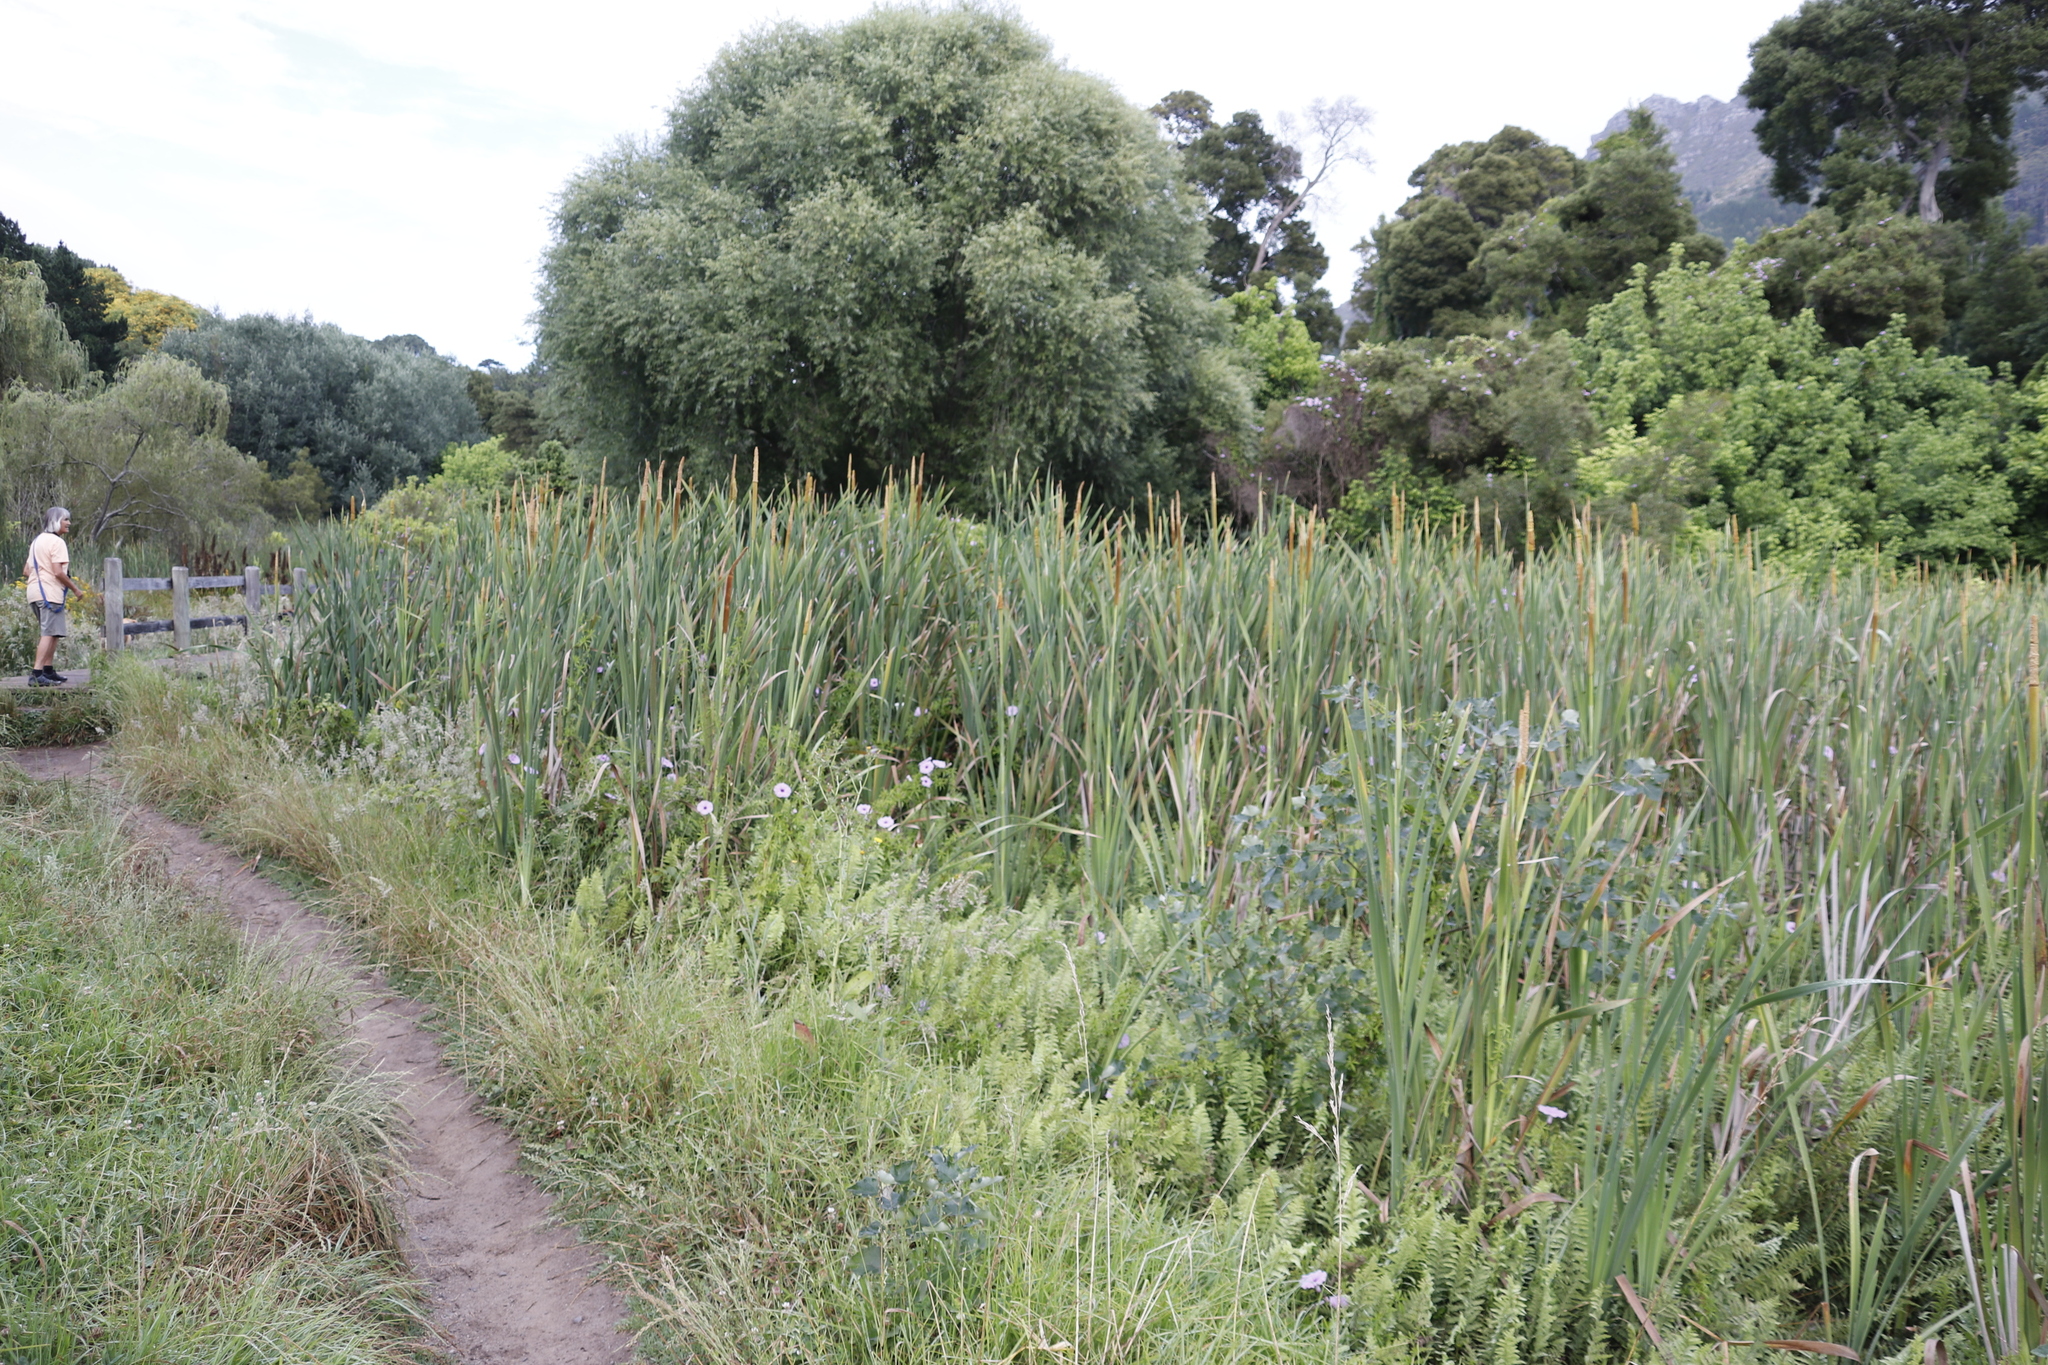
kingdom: Plantae
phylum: Tracheophyta
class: Liliopsida
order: Poales
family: Typhaceae
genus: Typha
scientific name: Typha capensis
